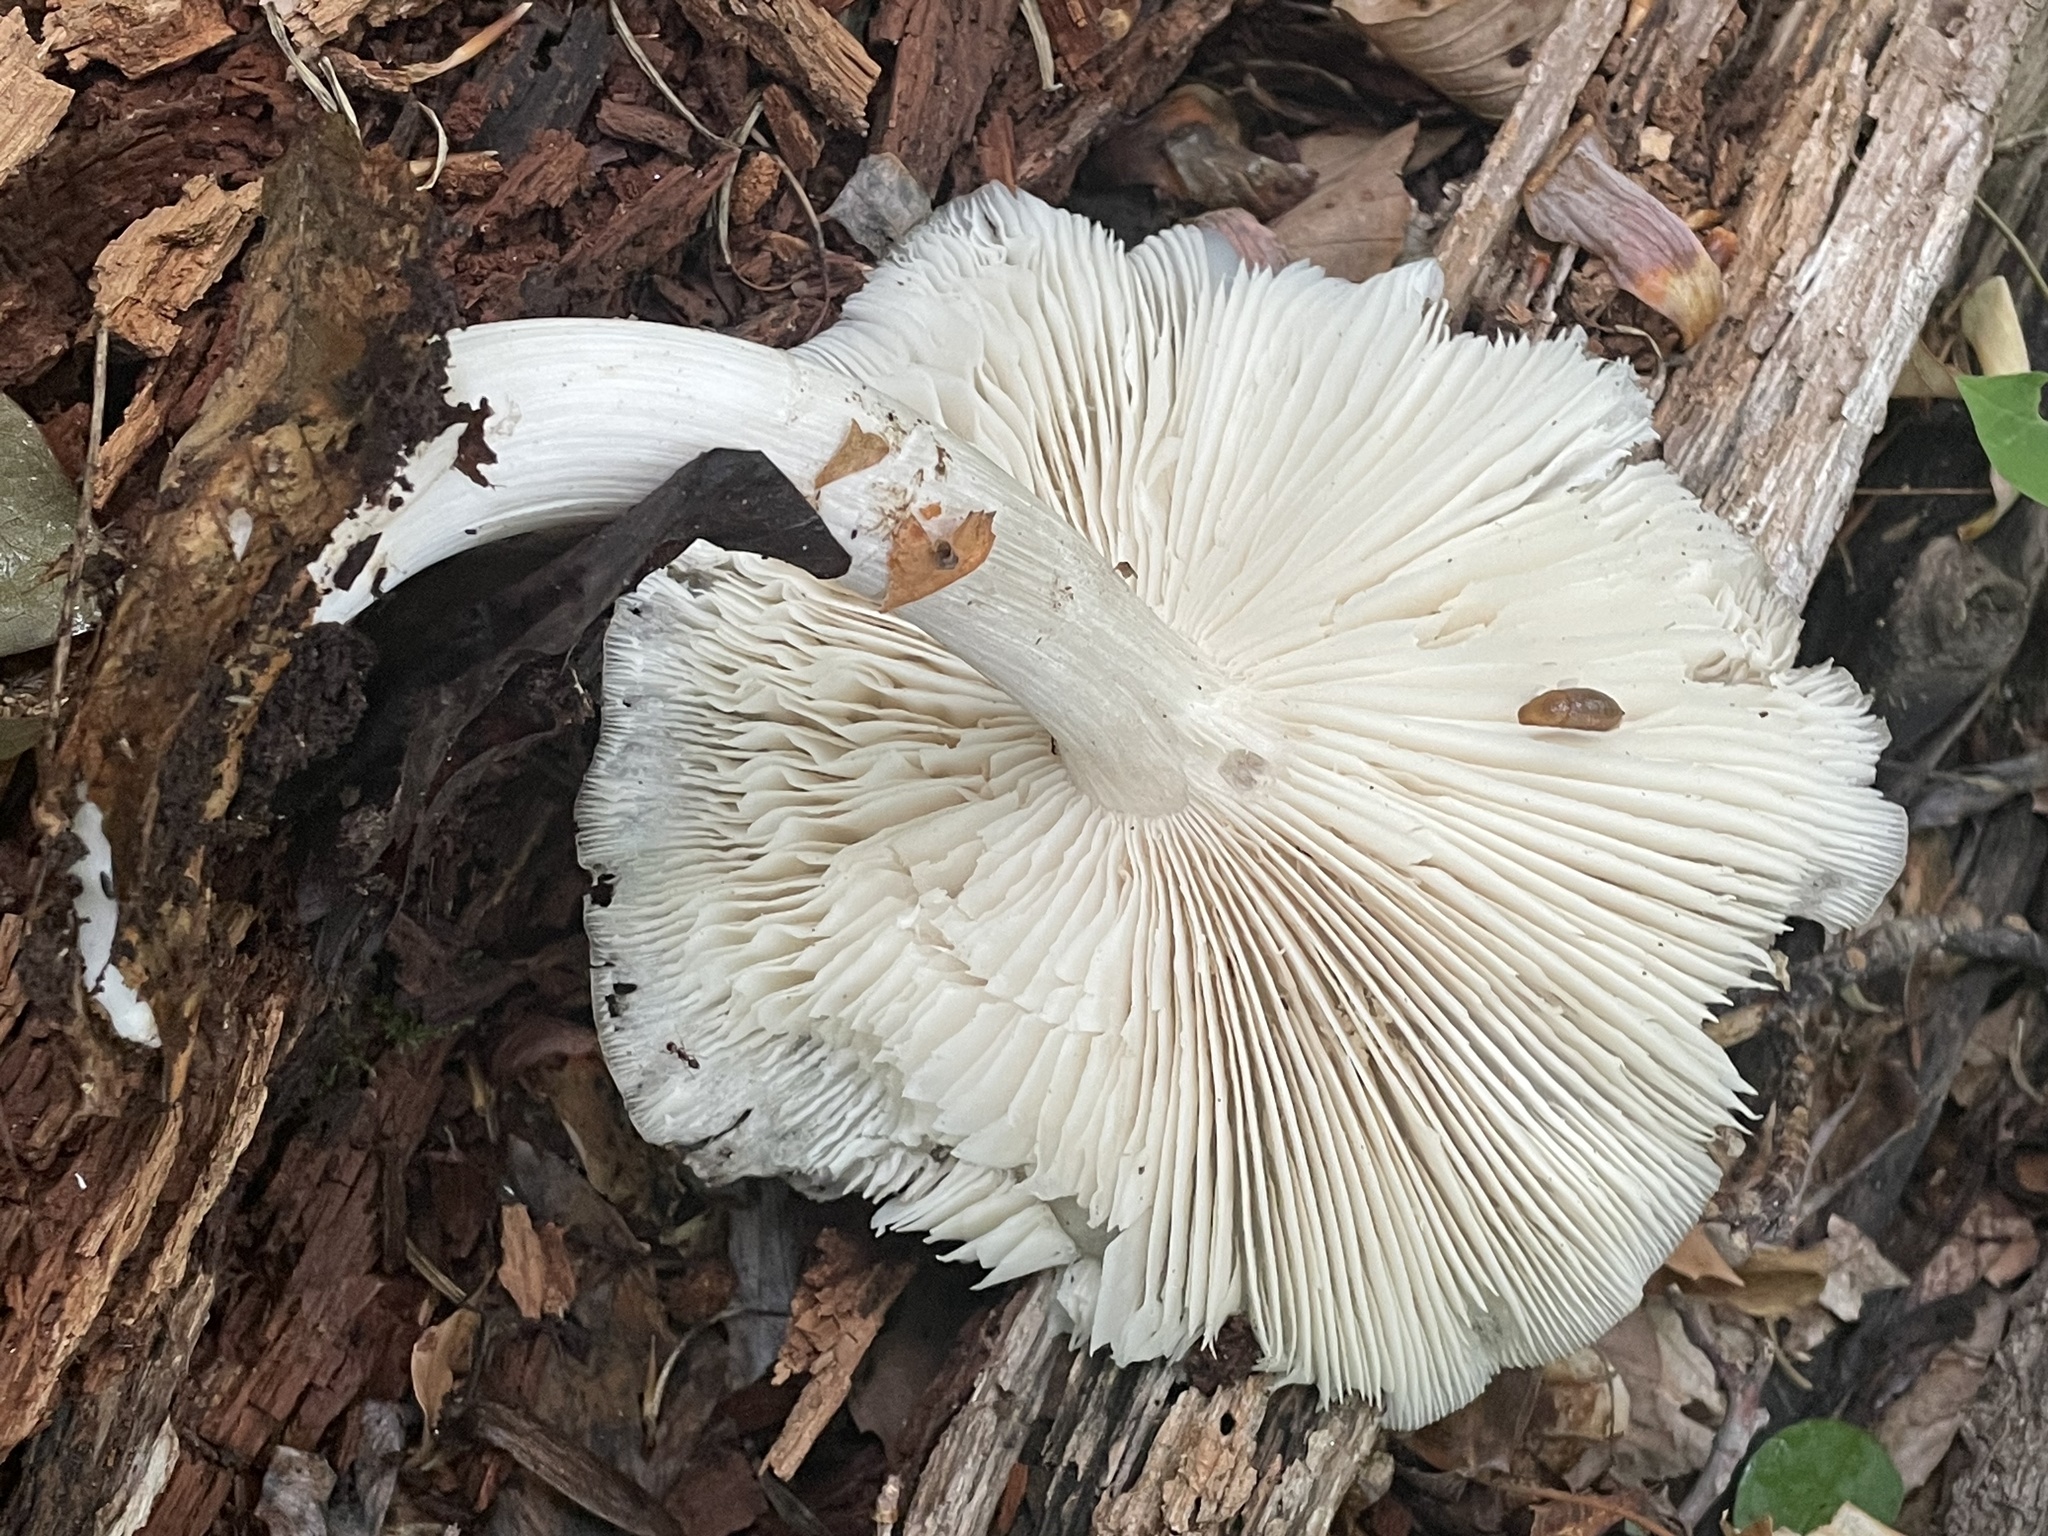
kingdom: Fungi
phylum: Basidiomycota
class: Agaricomycetes
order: Agaricales
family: Tricholomataceae
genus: Megacollybia
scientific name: Megacollybia rodmanii
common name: Eastern american platterful mushroom
